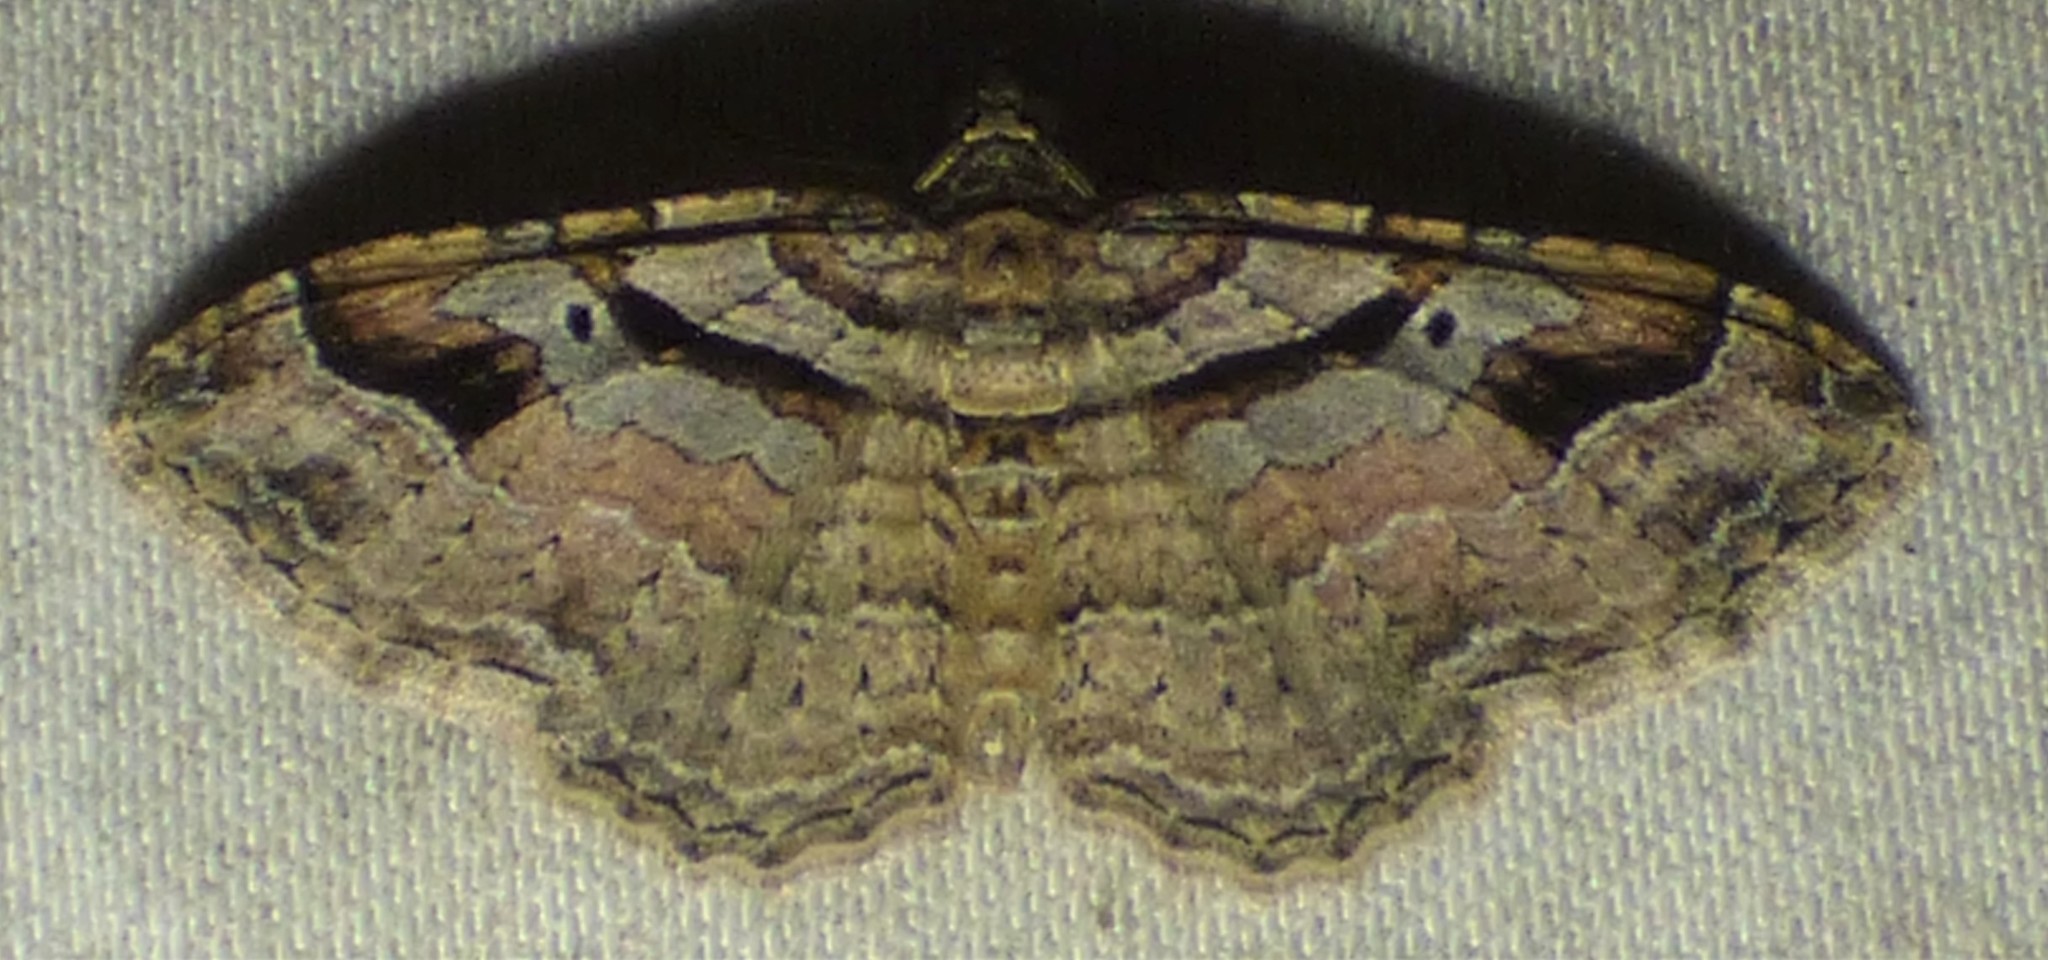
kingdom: Animalia
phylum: Arthropoda
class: Insecta
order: Lepidoptera
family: Geometridae
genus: Costaconvexa
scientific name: Costaconvexa centrostrigaria
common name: Bent-line carpet
